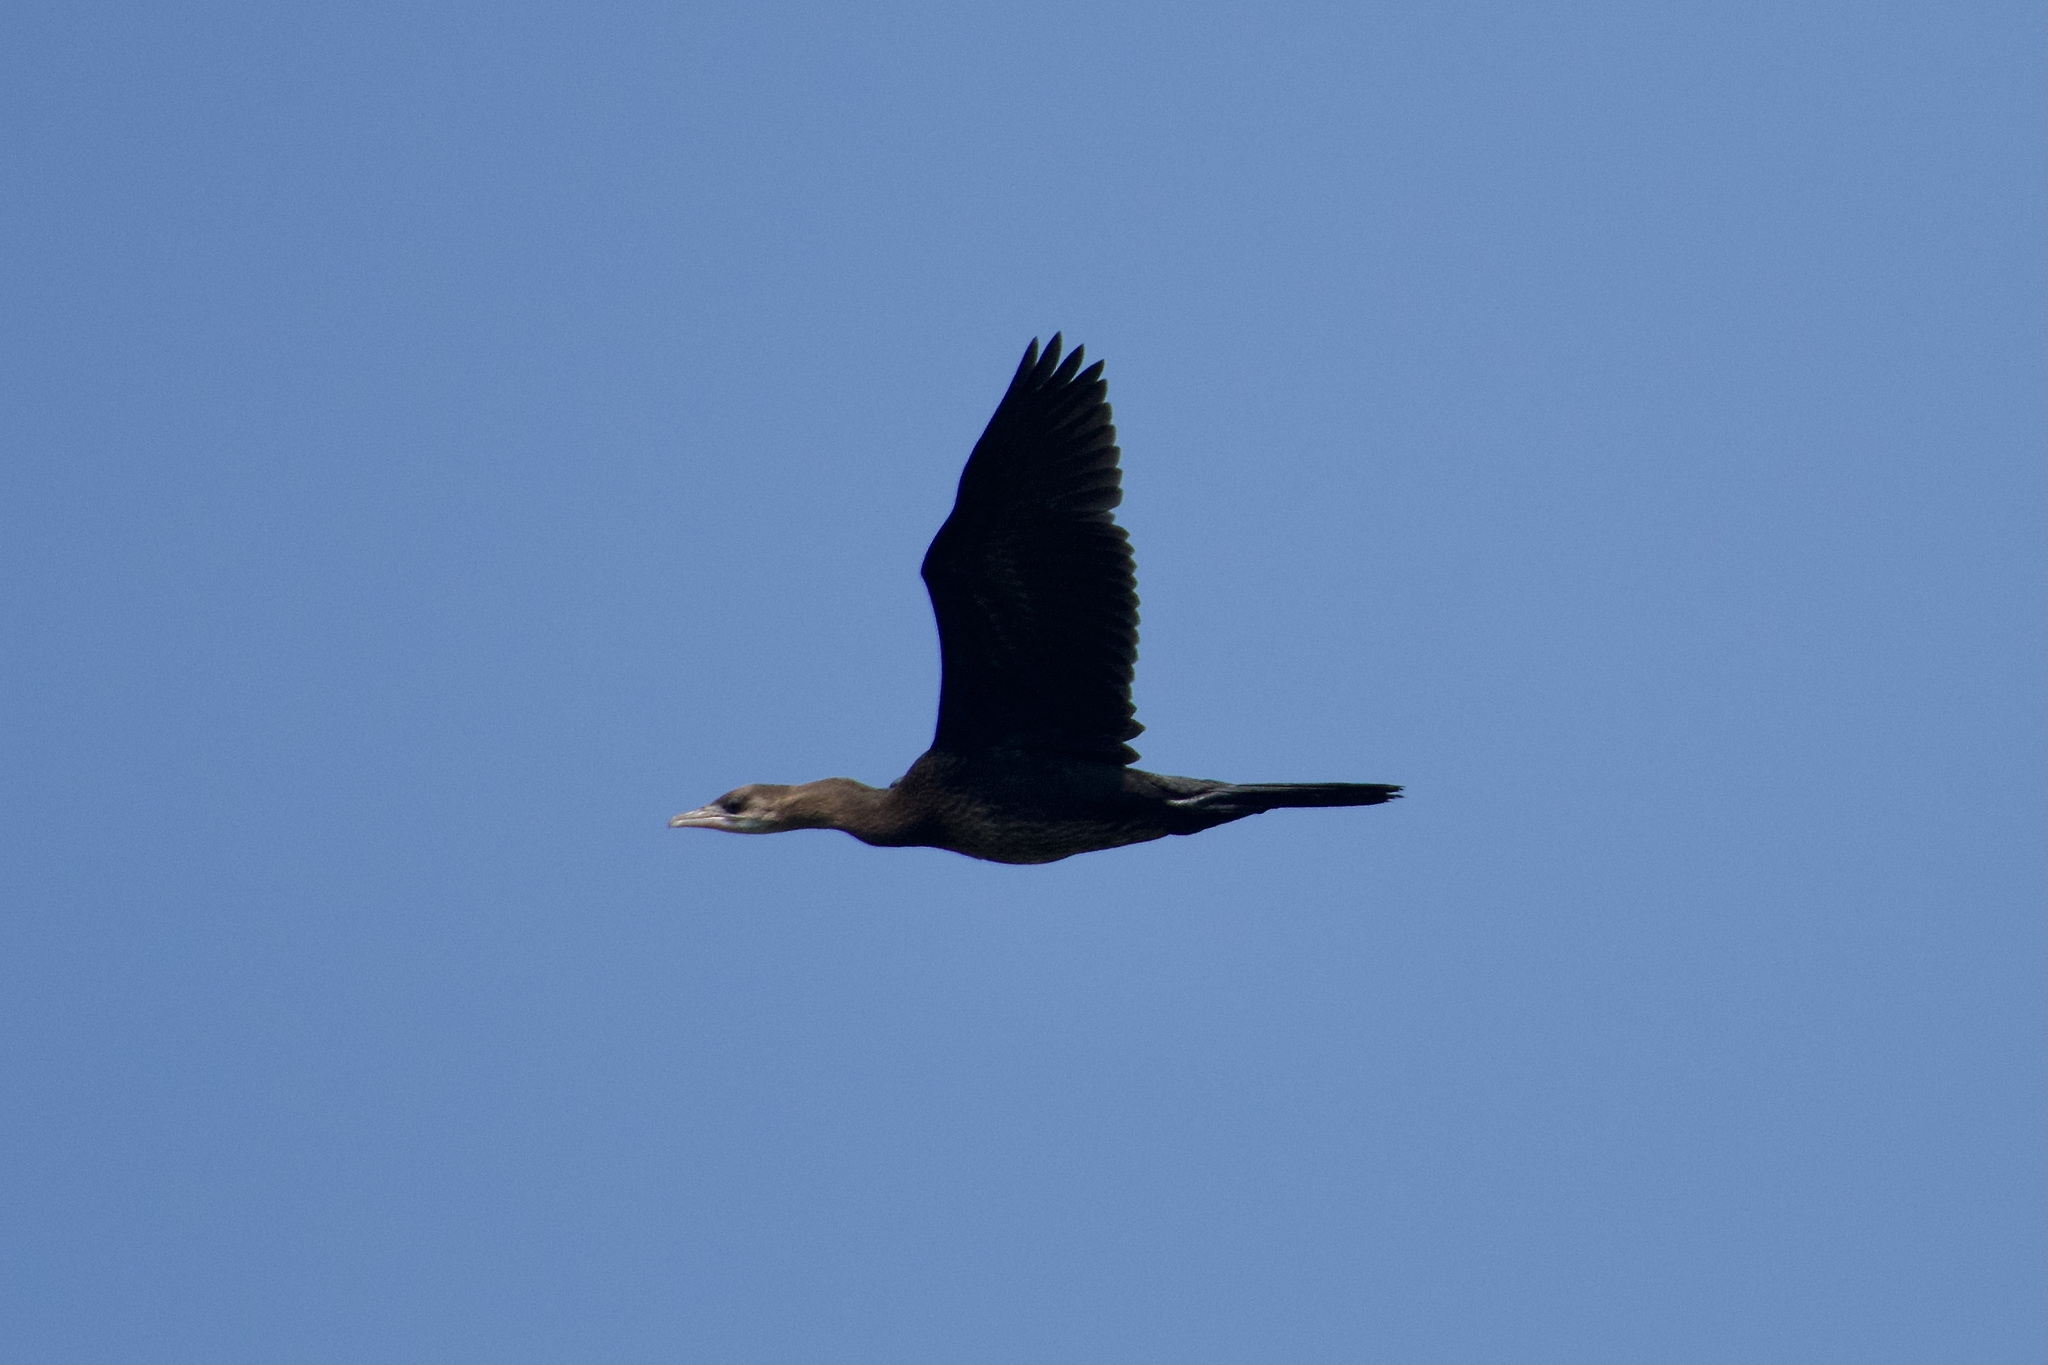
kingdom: Animalia
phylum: Chordata
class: Aves
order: Suliformes
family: Phalacrocoracidae
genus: Microcarbo
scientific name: Microcarbo pygmaeus
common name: Pygmy cormorant
